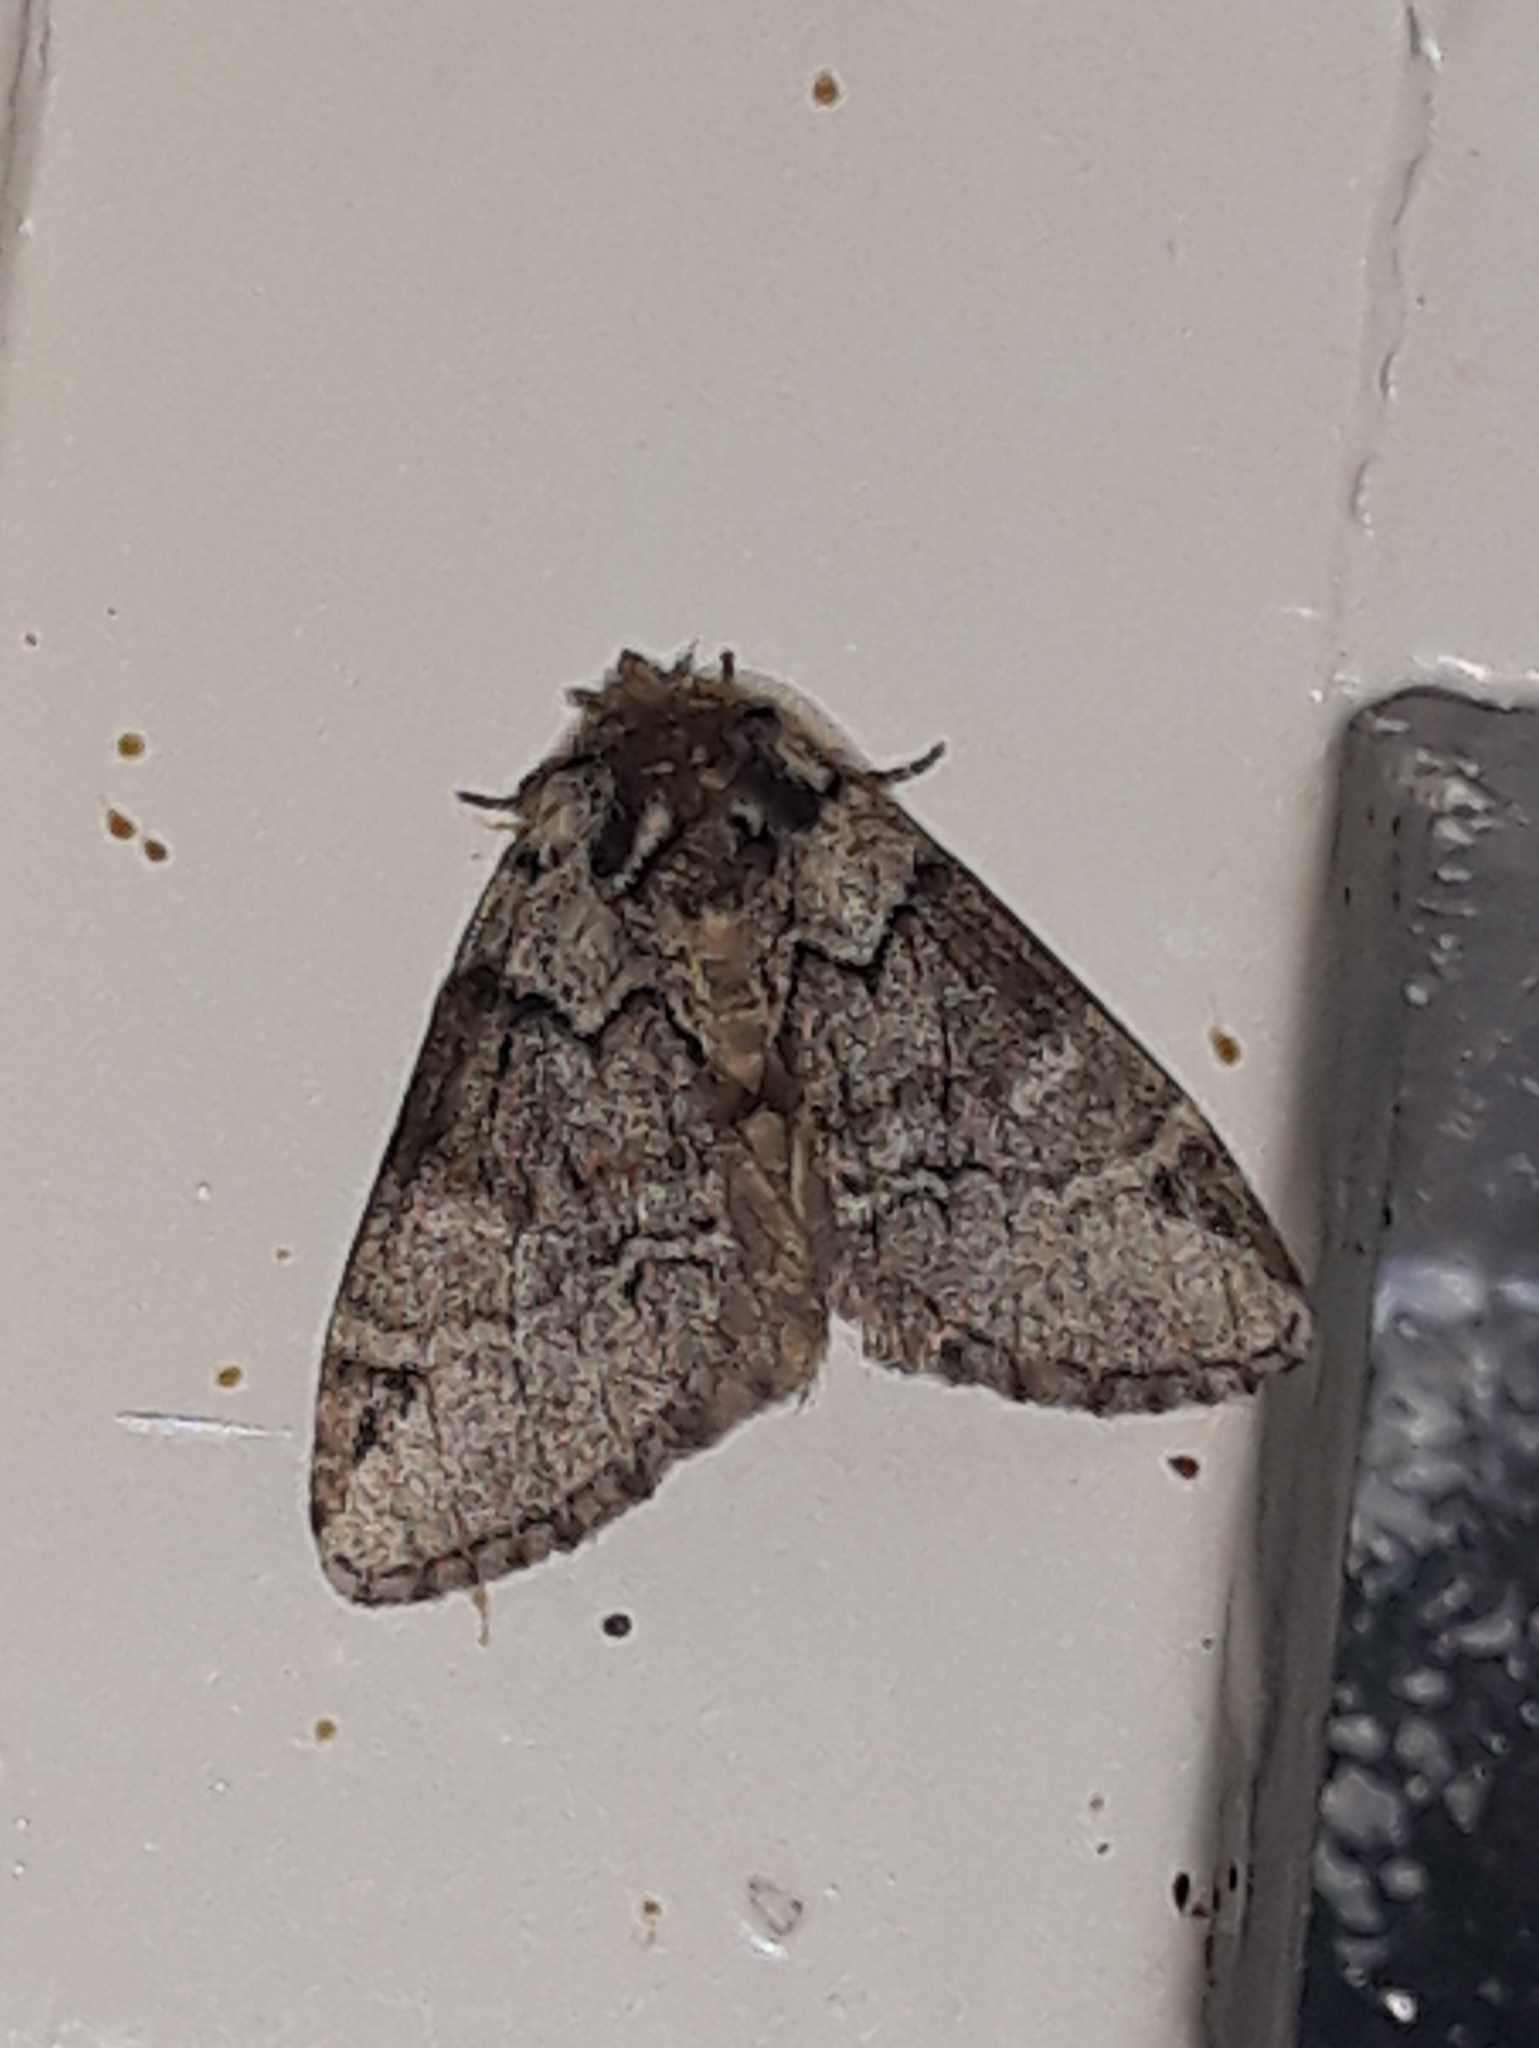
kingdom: Animalia
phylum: Arthropoda
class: Insecta
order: Lepidoptera
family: Notodontidae
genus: Drymonia
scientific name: Drymonia obliterata
